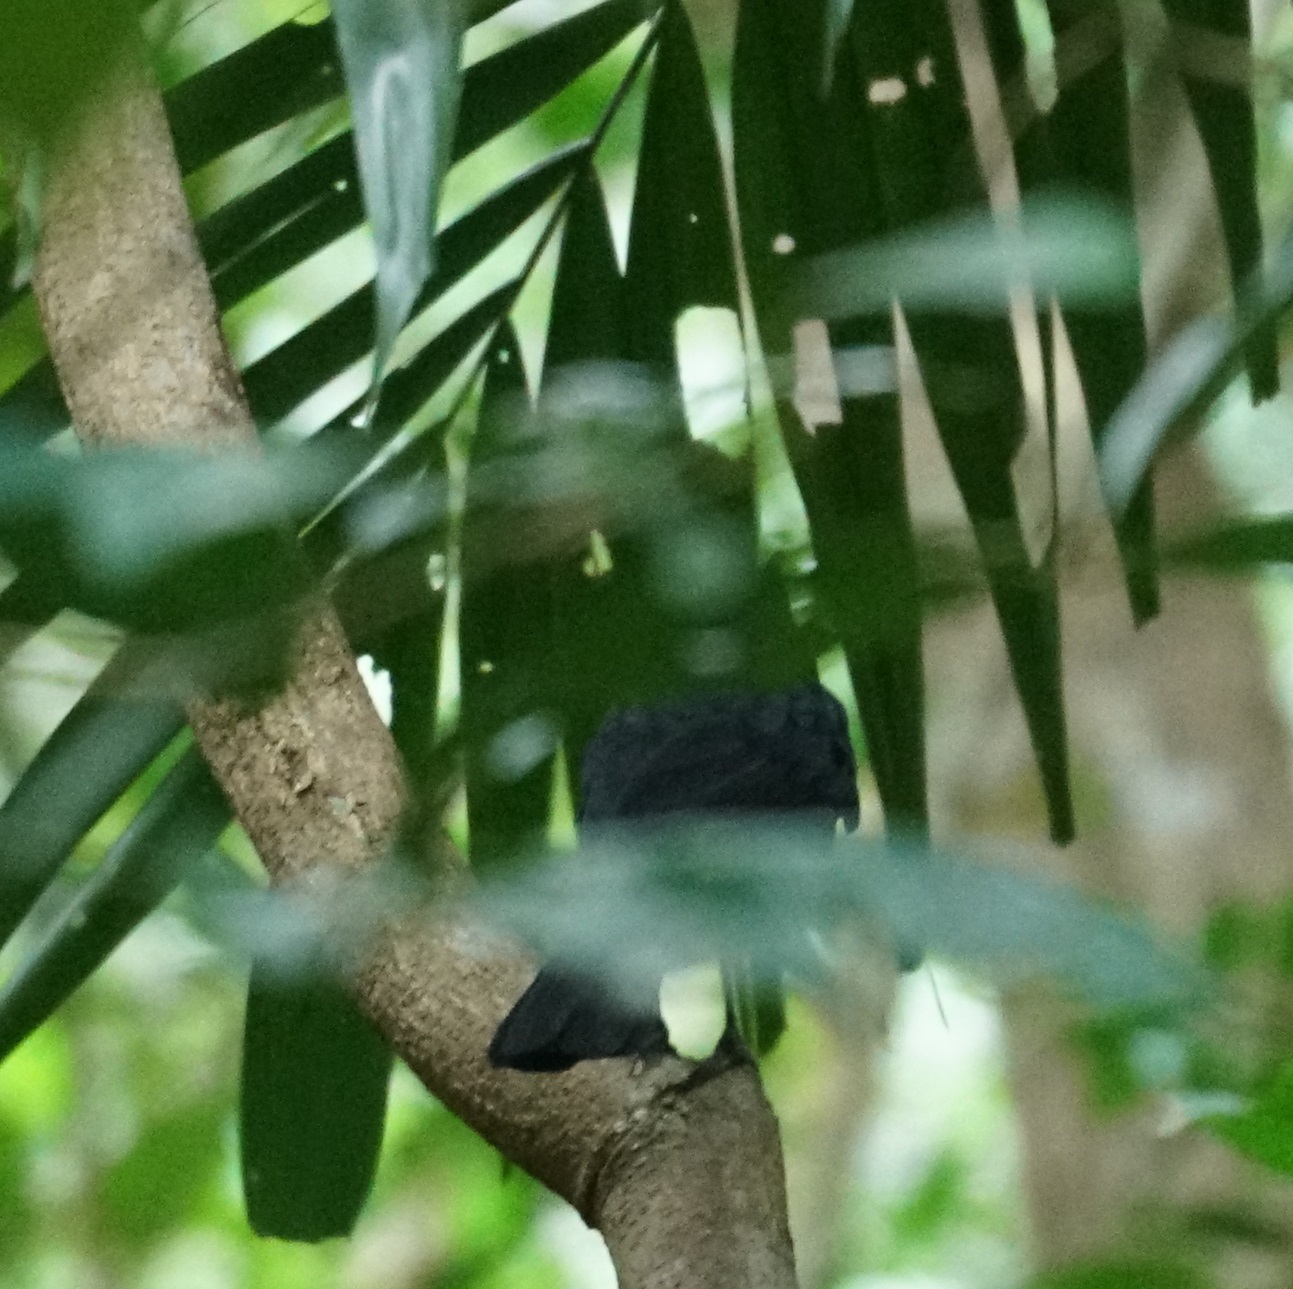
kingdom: Animalia
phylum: Chordata
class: Aves
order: Passeriformes
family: Artamidae
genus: Melloria
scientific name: Melloria quoyi
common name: Black butcherbird
